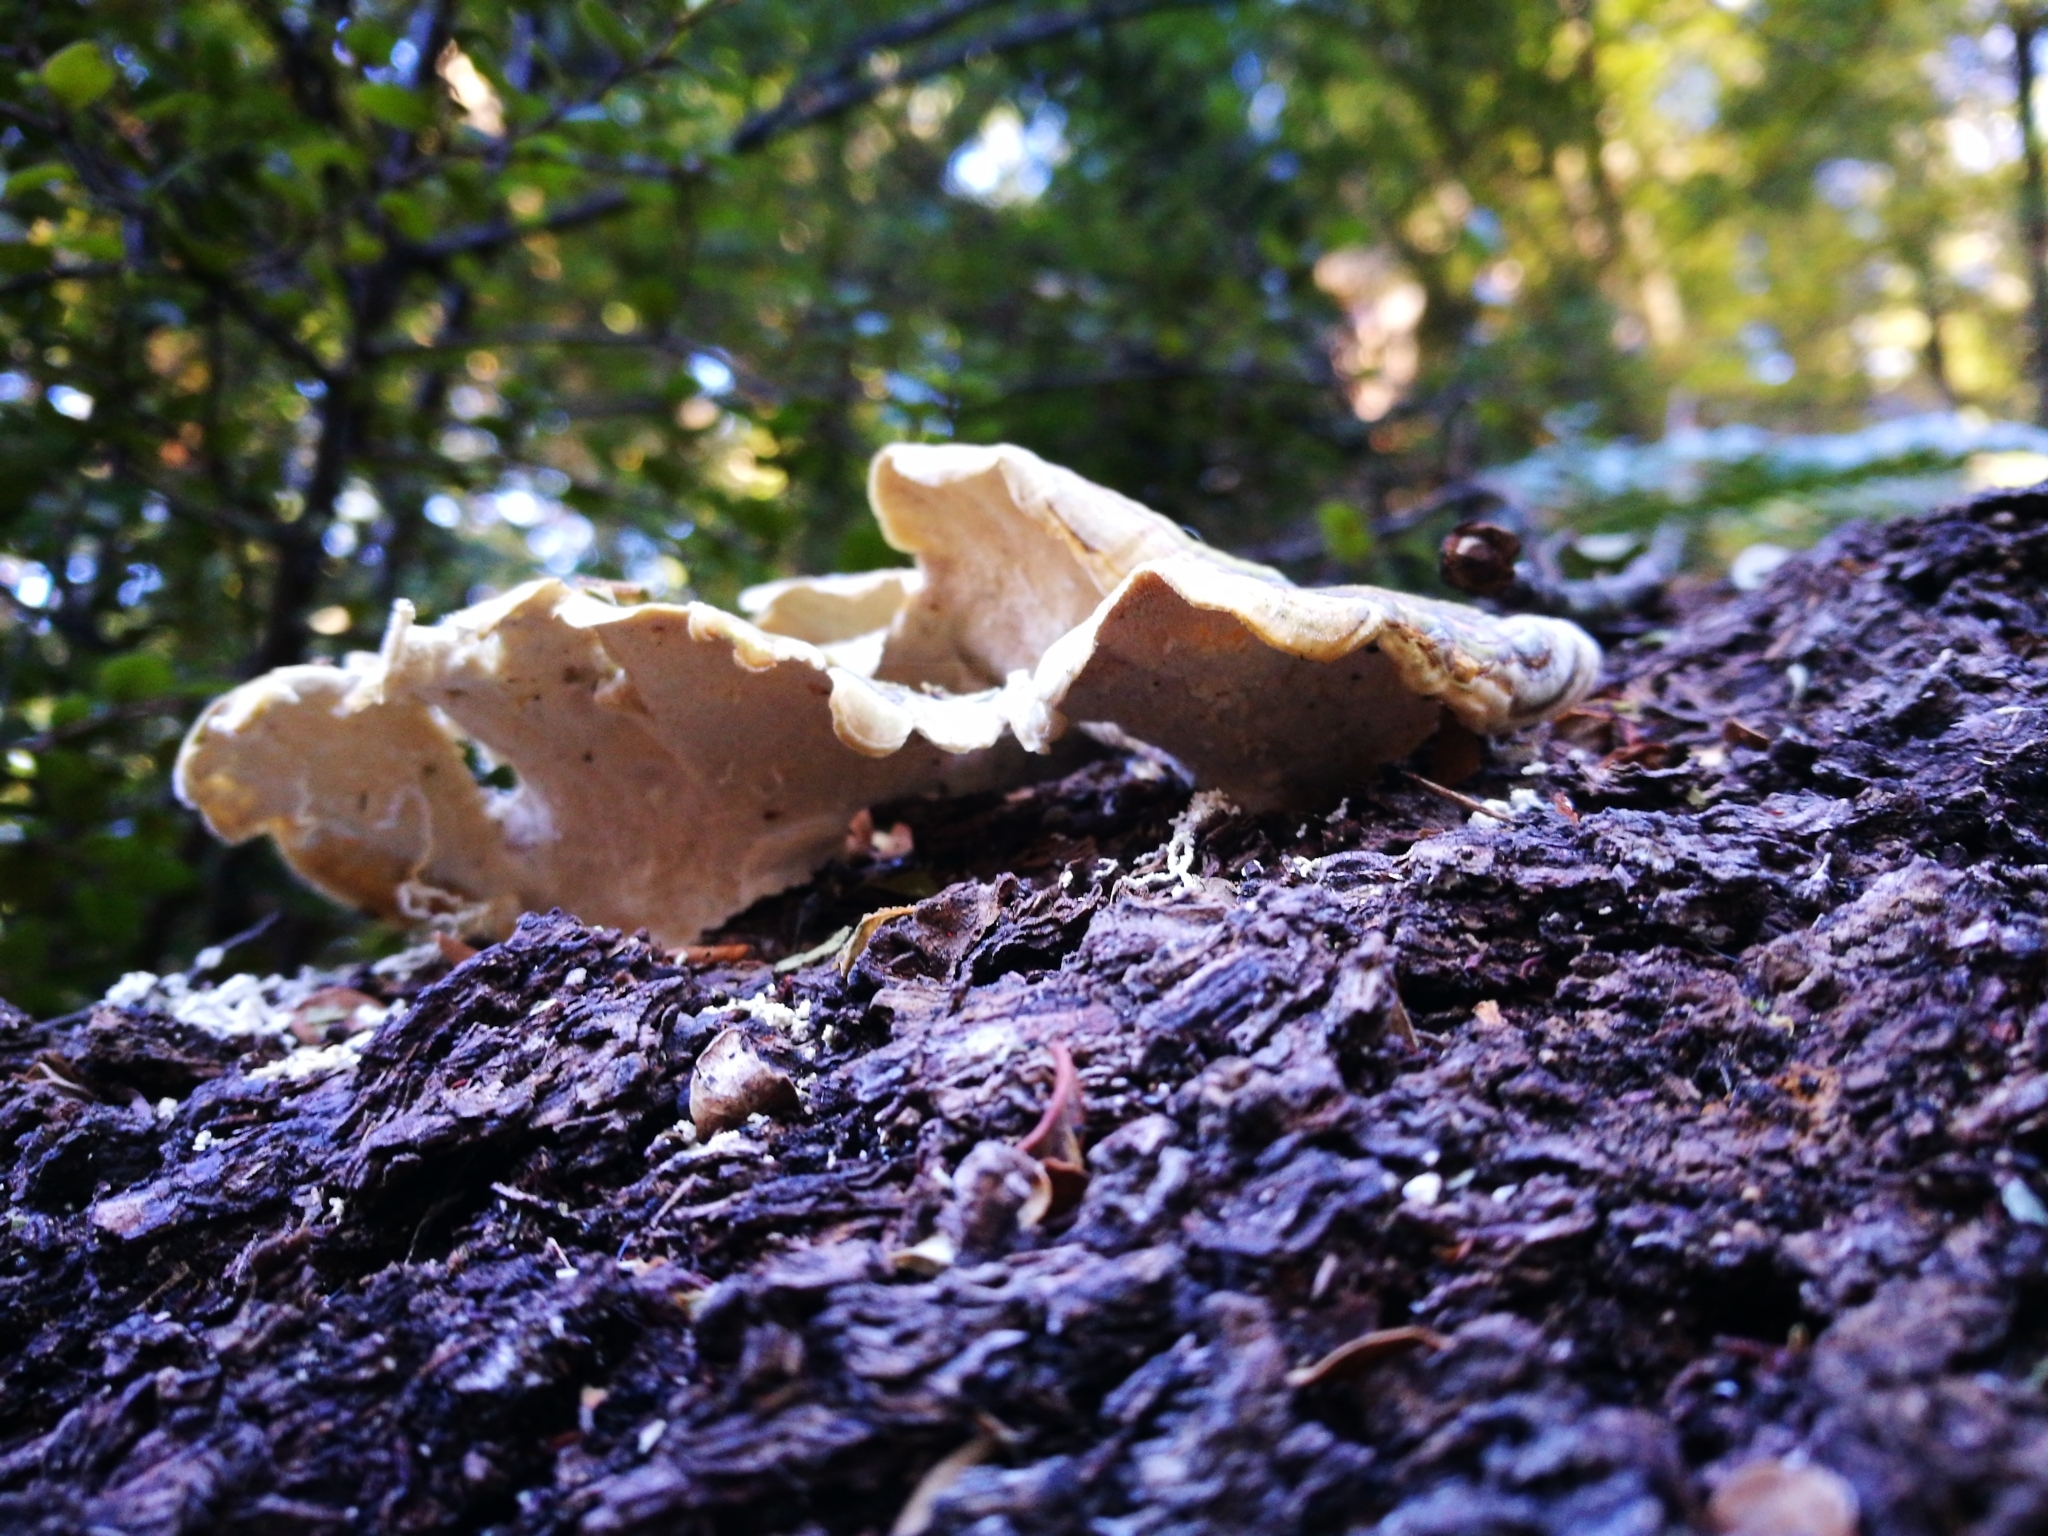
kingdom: Fungi
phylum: Basidiomycota
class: Agaricomycetes
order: Polyporales
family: Polyporaceae
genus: Trametes
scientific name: Trametes versicolor
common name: Turkeytail
